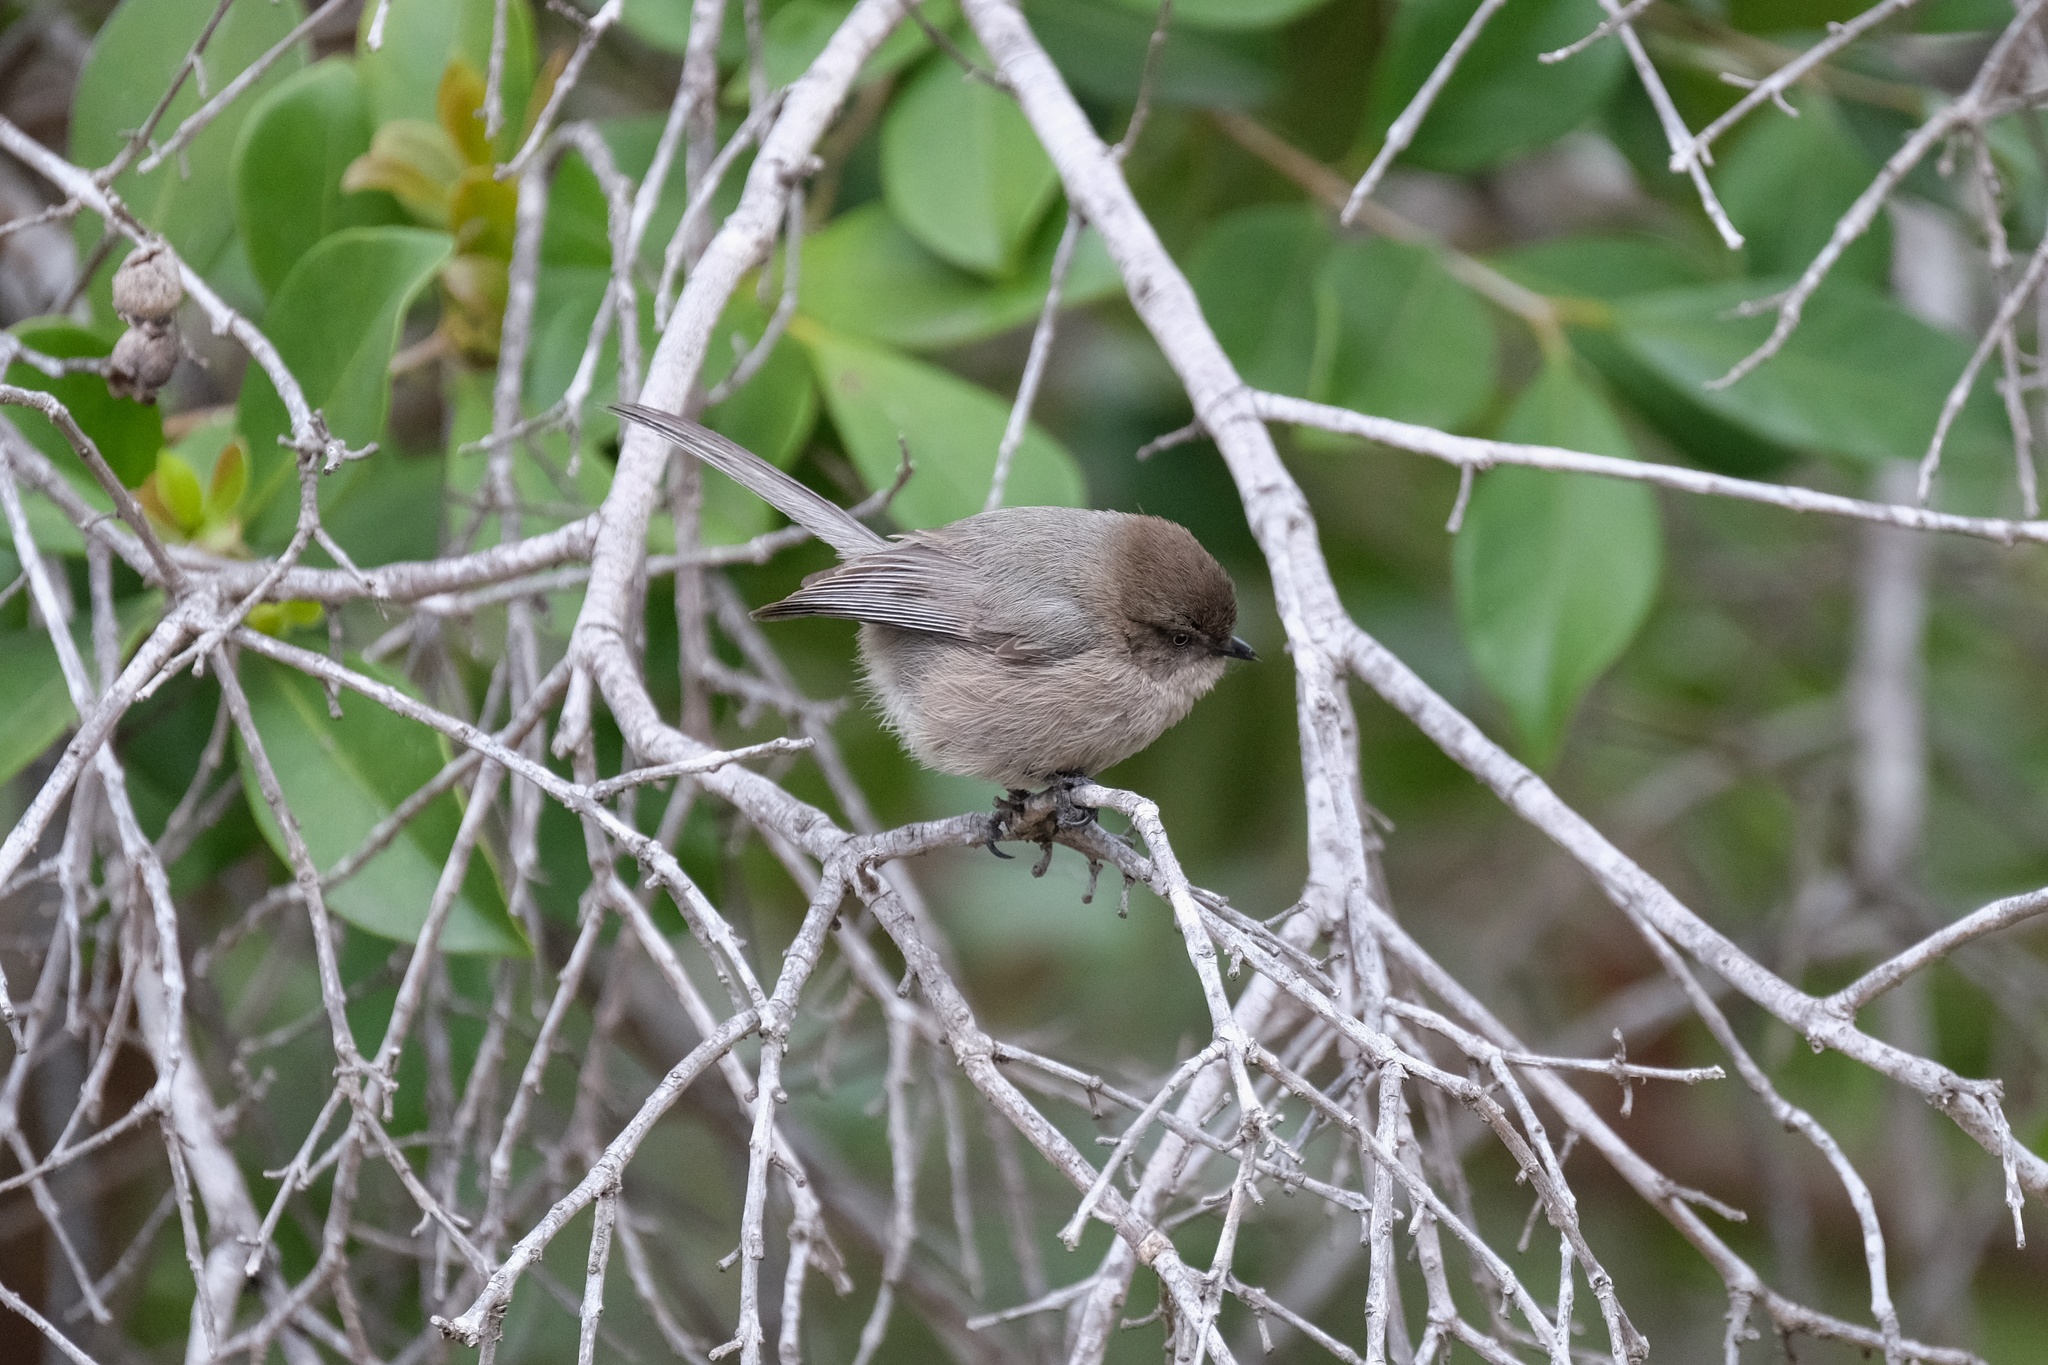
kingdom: Animalia
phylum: Chordata
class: Aves
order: Passeriformes
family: Aegithalidae
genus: Psaltriparus
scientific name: Psaltriparus minimus
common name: American bushtit
